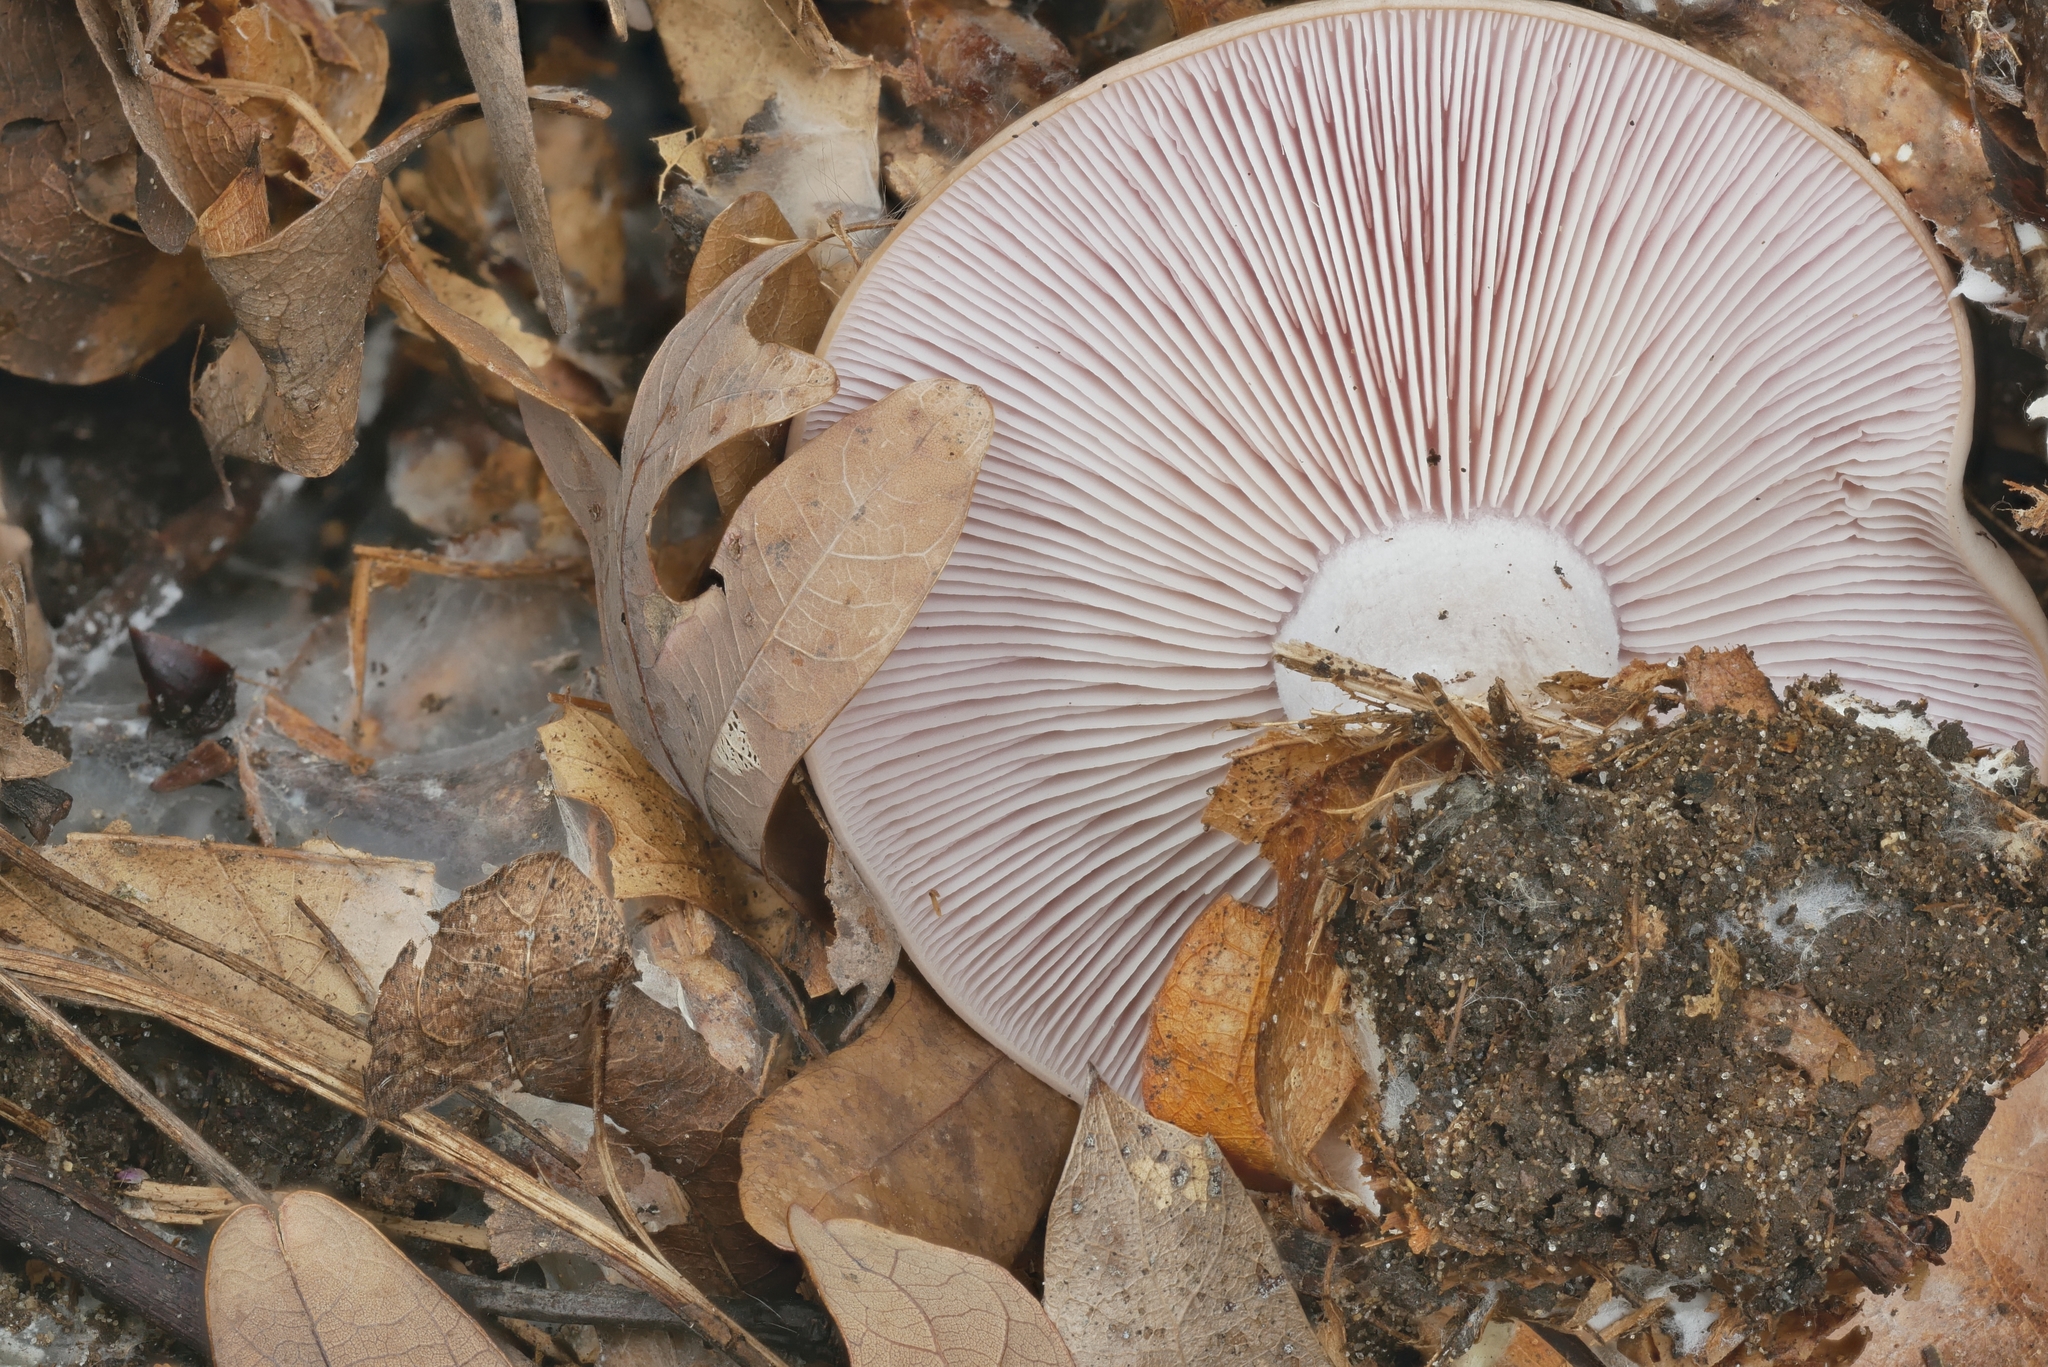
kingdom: Fungi
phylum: Basidiomycota
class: Agaricomycetes
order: Agaricales
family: Tricholomataceae
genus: Collybia
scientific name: Collybia
